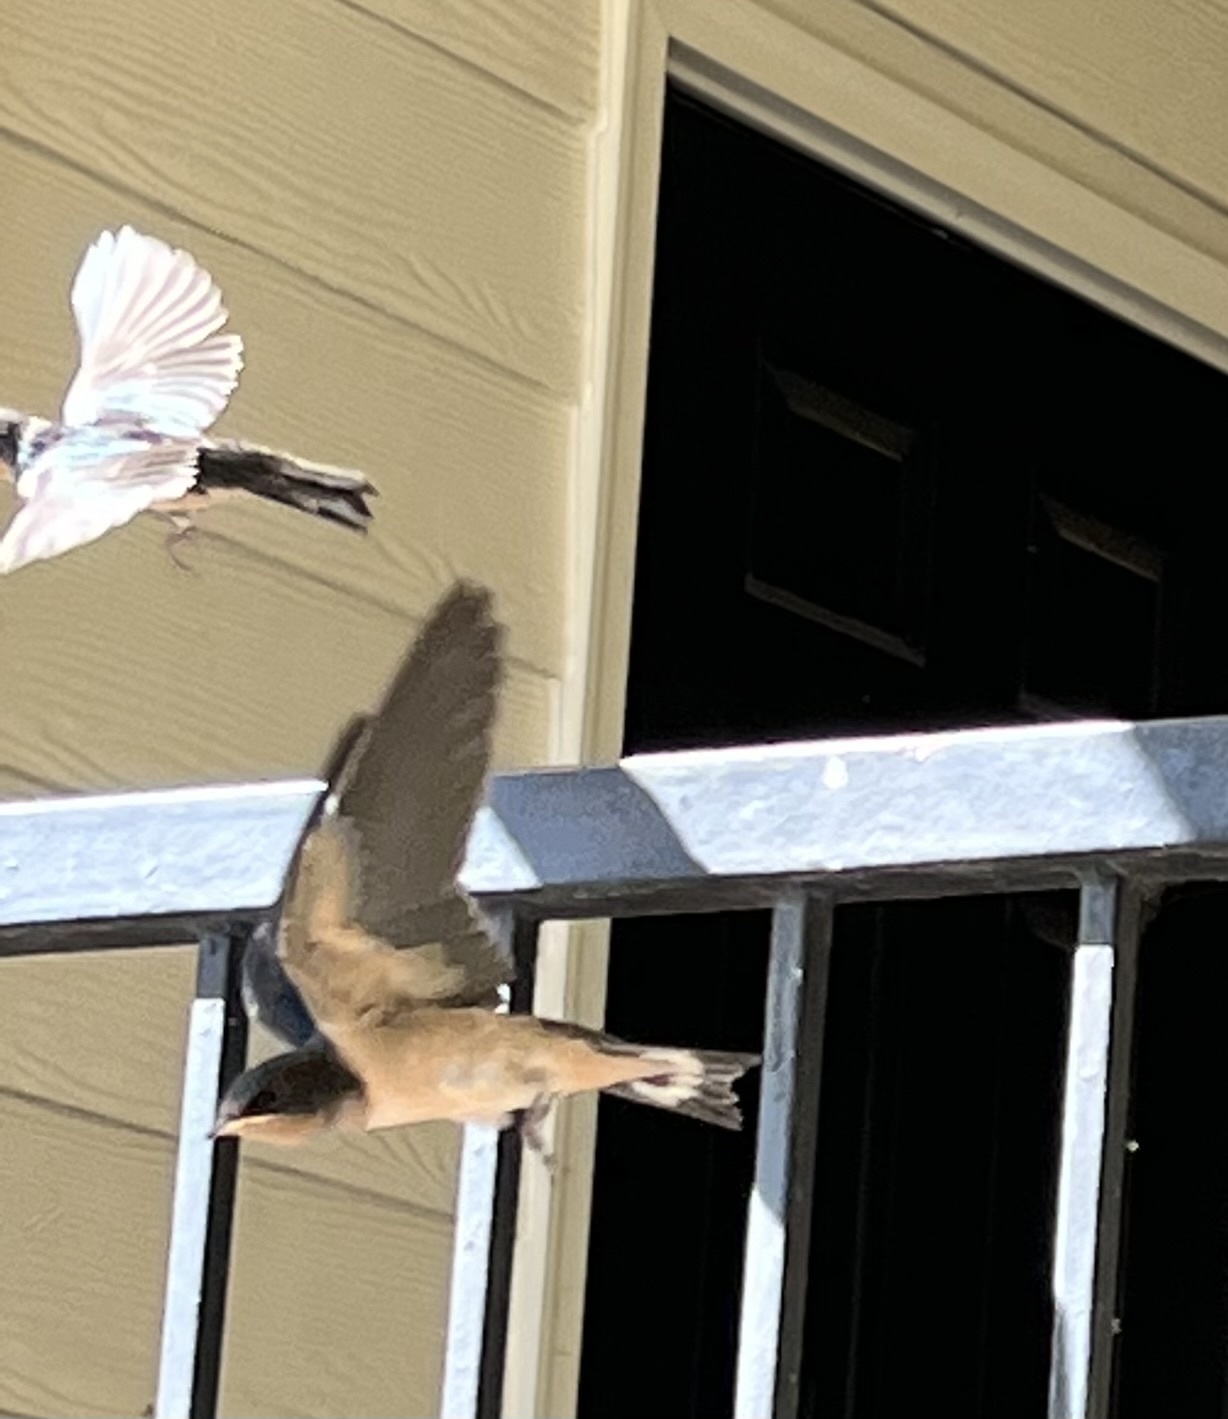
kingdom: Animalia
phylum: Chordata
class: Aves
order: Passeriformes
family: Hirundinidae
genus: Hirundo
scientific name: Hirundo rustica
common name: Barn swallow
